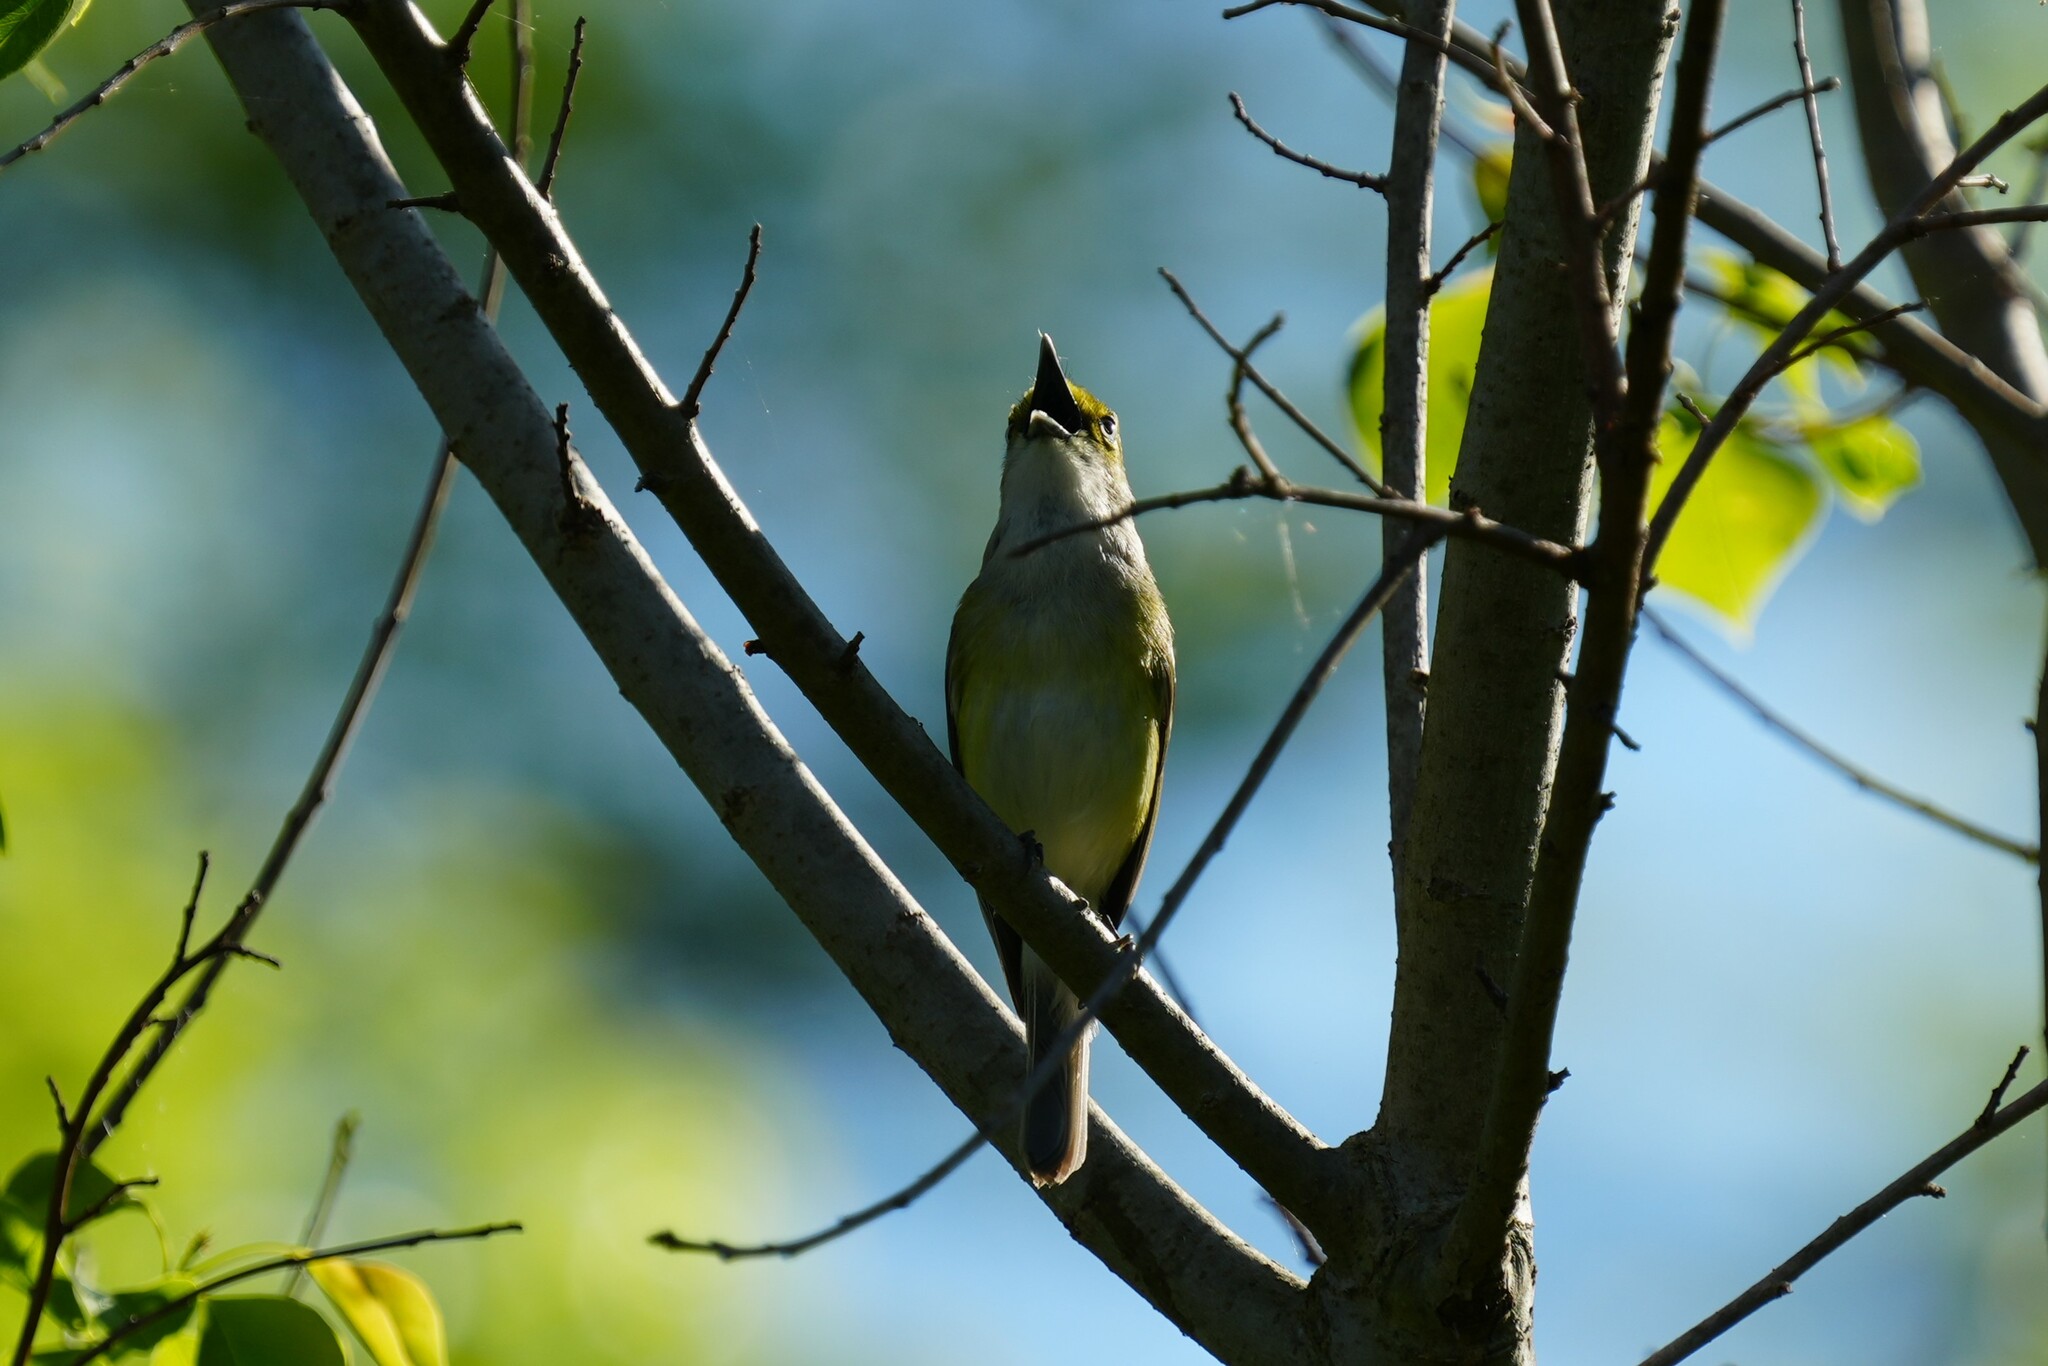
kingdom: Animalia
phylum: Chordata
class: Aves
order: Passeriformes
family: Vireonidae
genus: Vireo
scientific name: Vireo griseus
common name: White-eyed vireo
